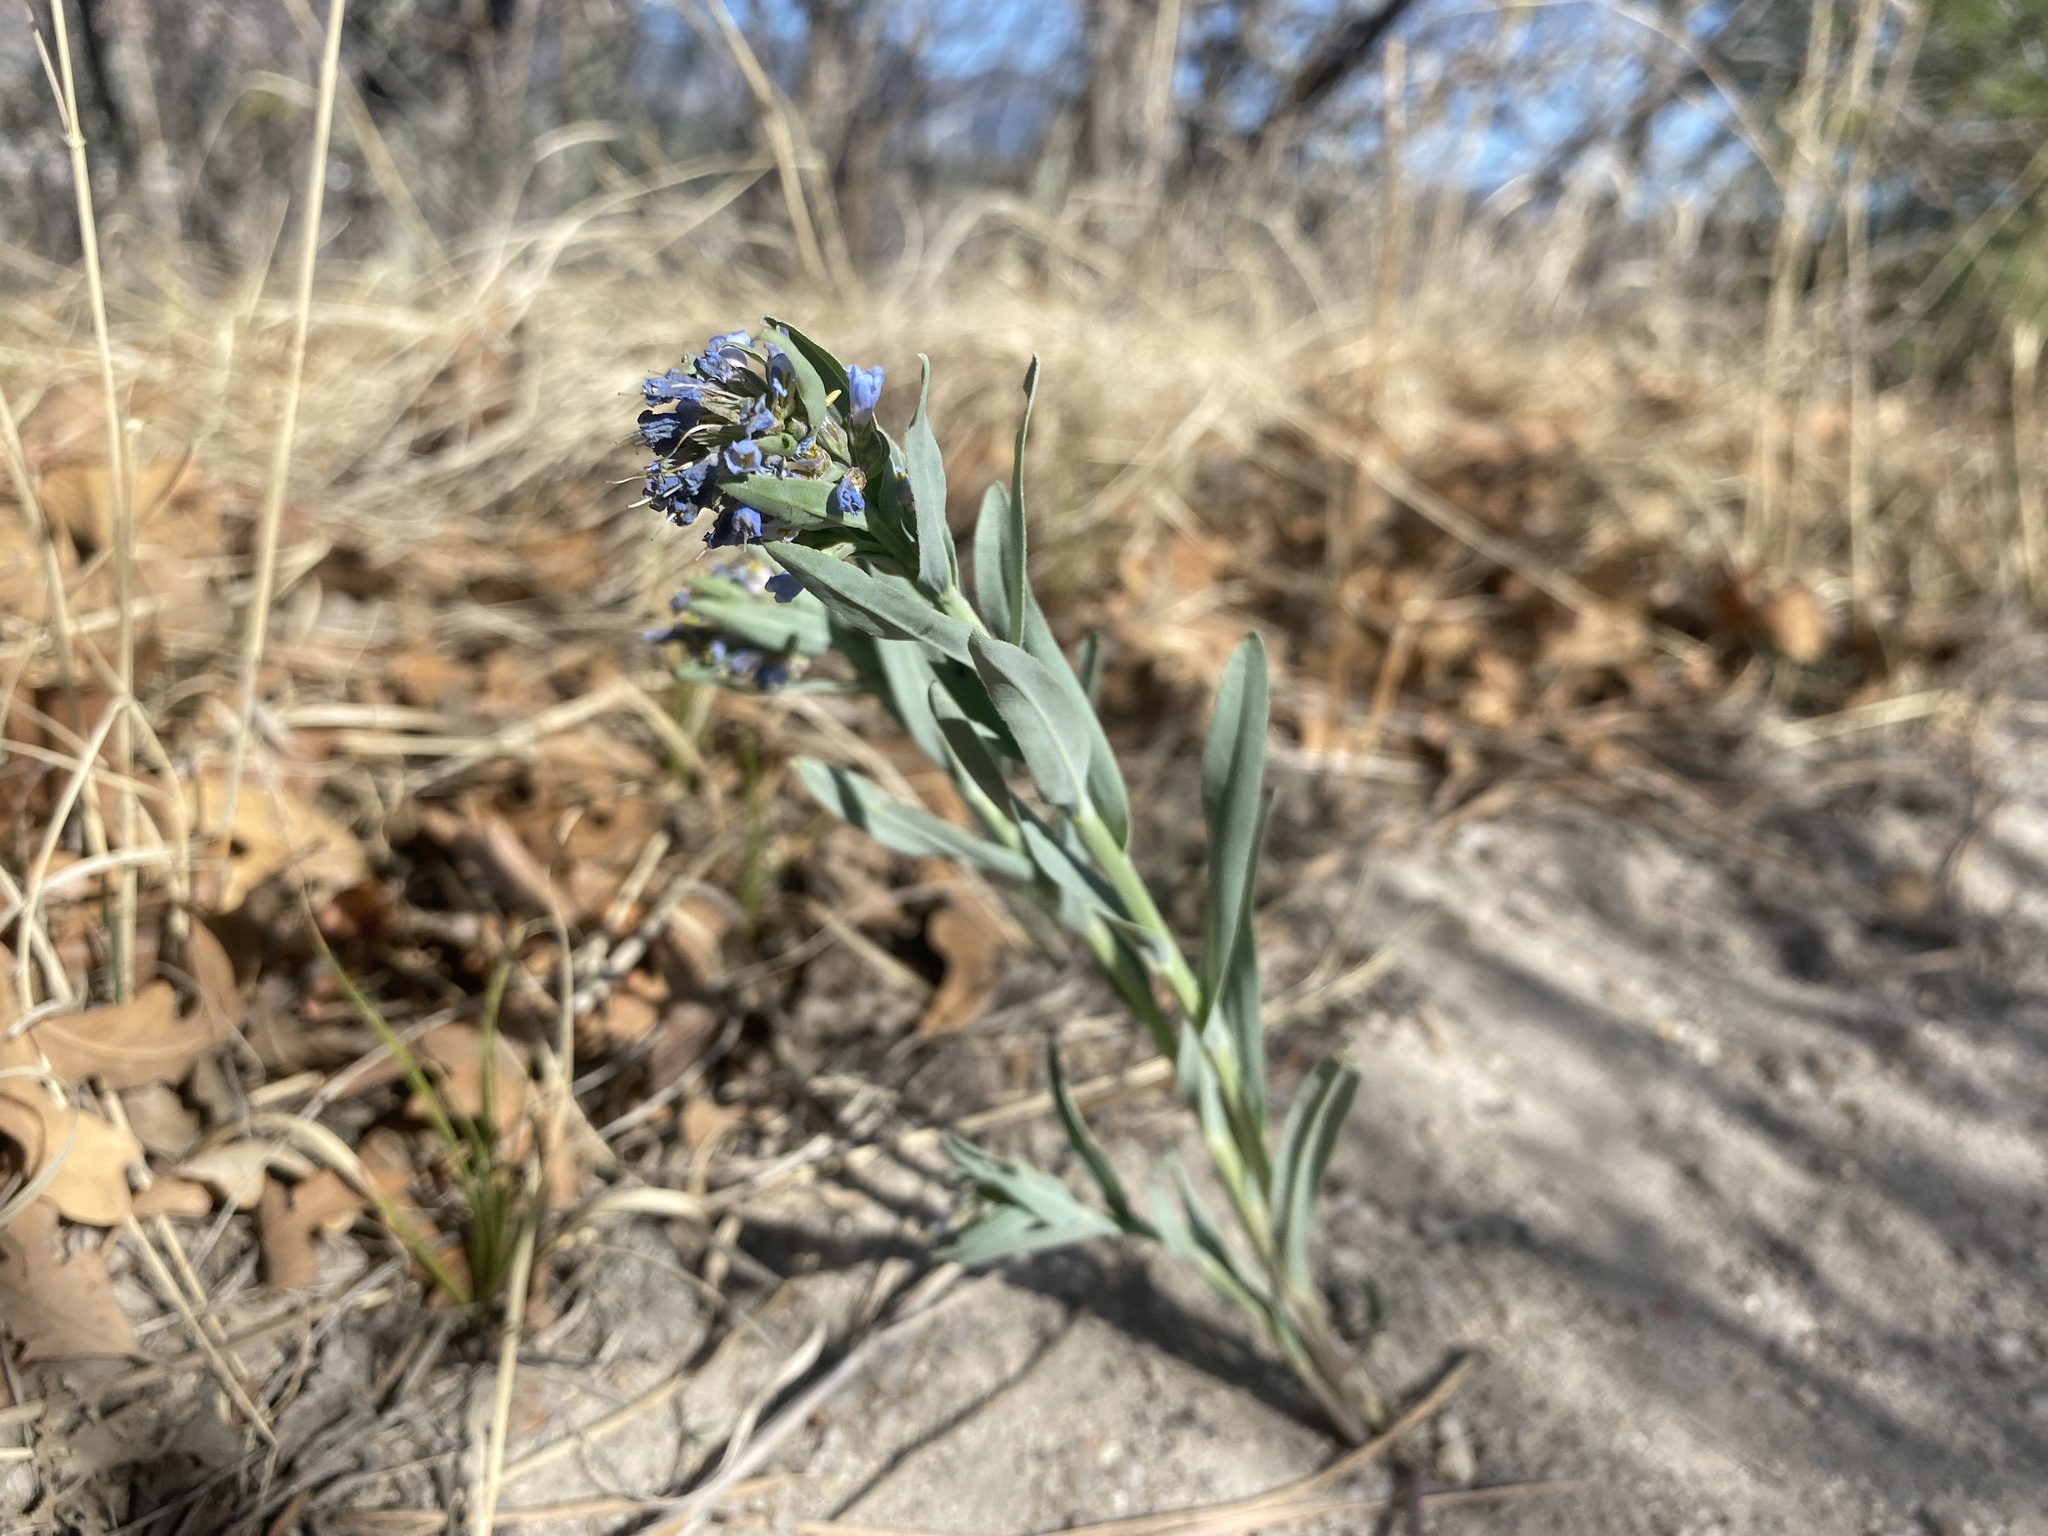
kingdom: Plantae
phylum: Tracheophyta
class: Magnoliopsida
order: Boraginales
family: Boraginaceae
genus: Mertensia
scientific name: Mertensia lanceolata
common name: Lance-leaved bluebells
